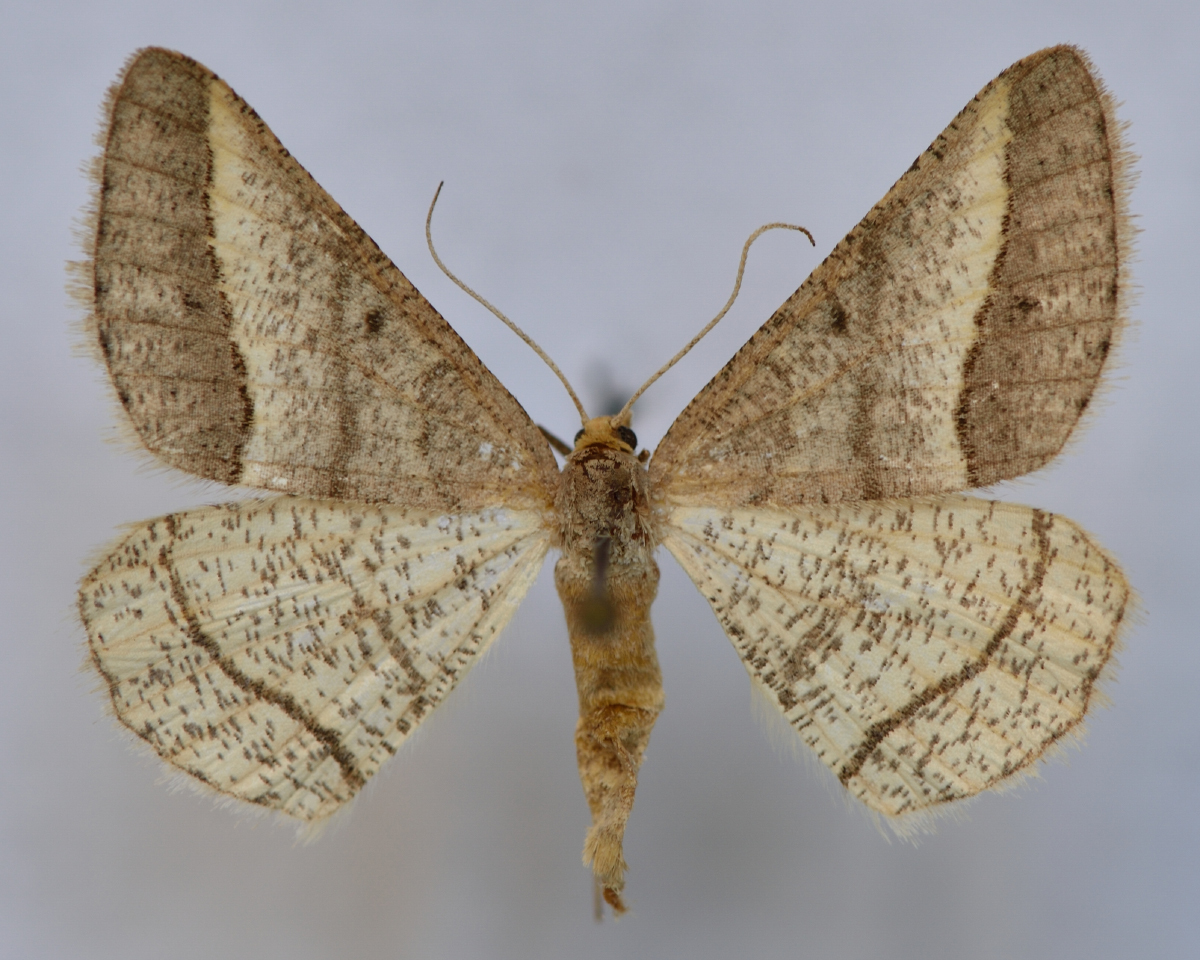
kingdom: Animalia
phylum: Arthropoda
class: Insecta
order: Lepidoptera
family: Geometridae
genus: Tephrina
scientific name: Tephrina arenacearia
